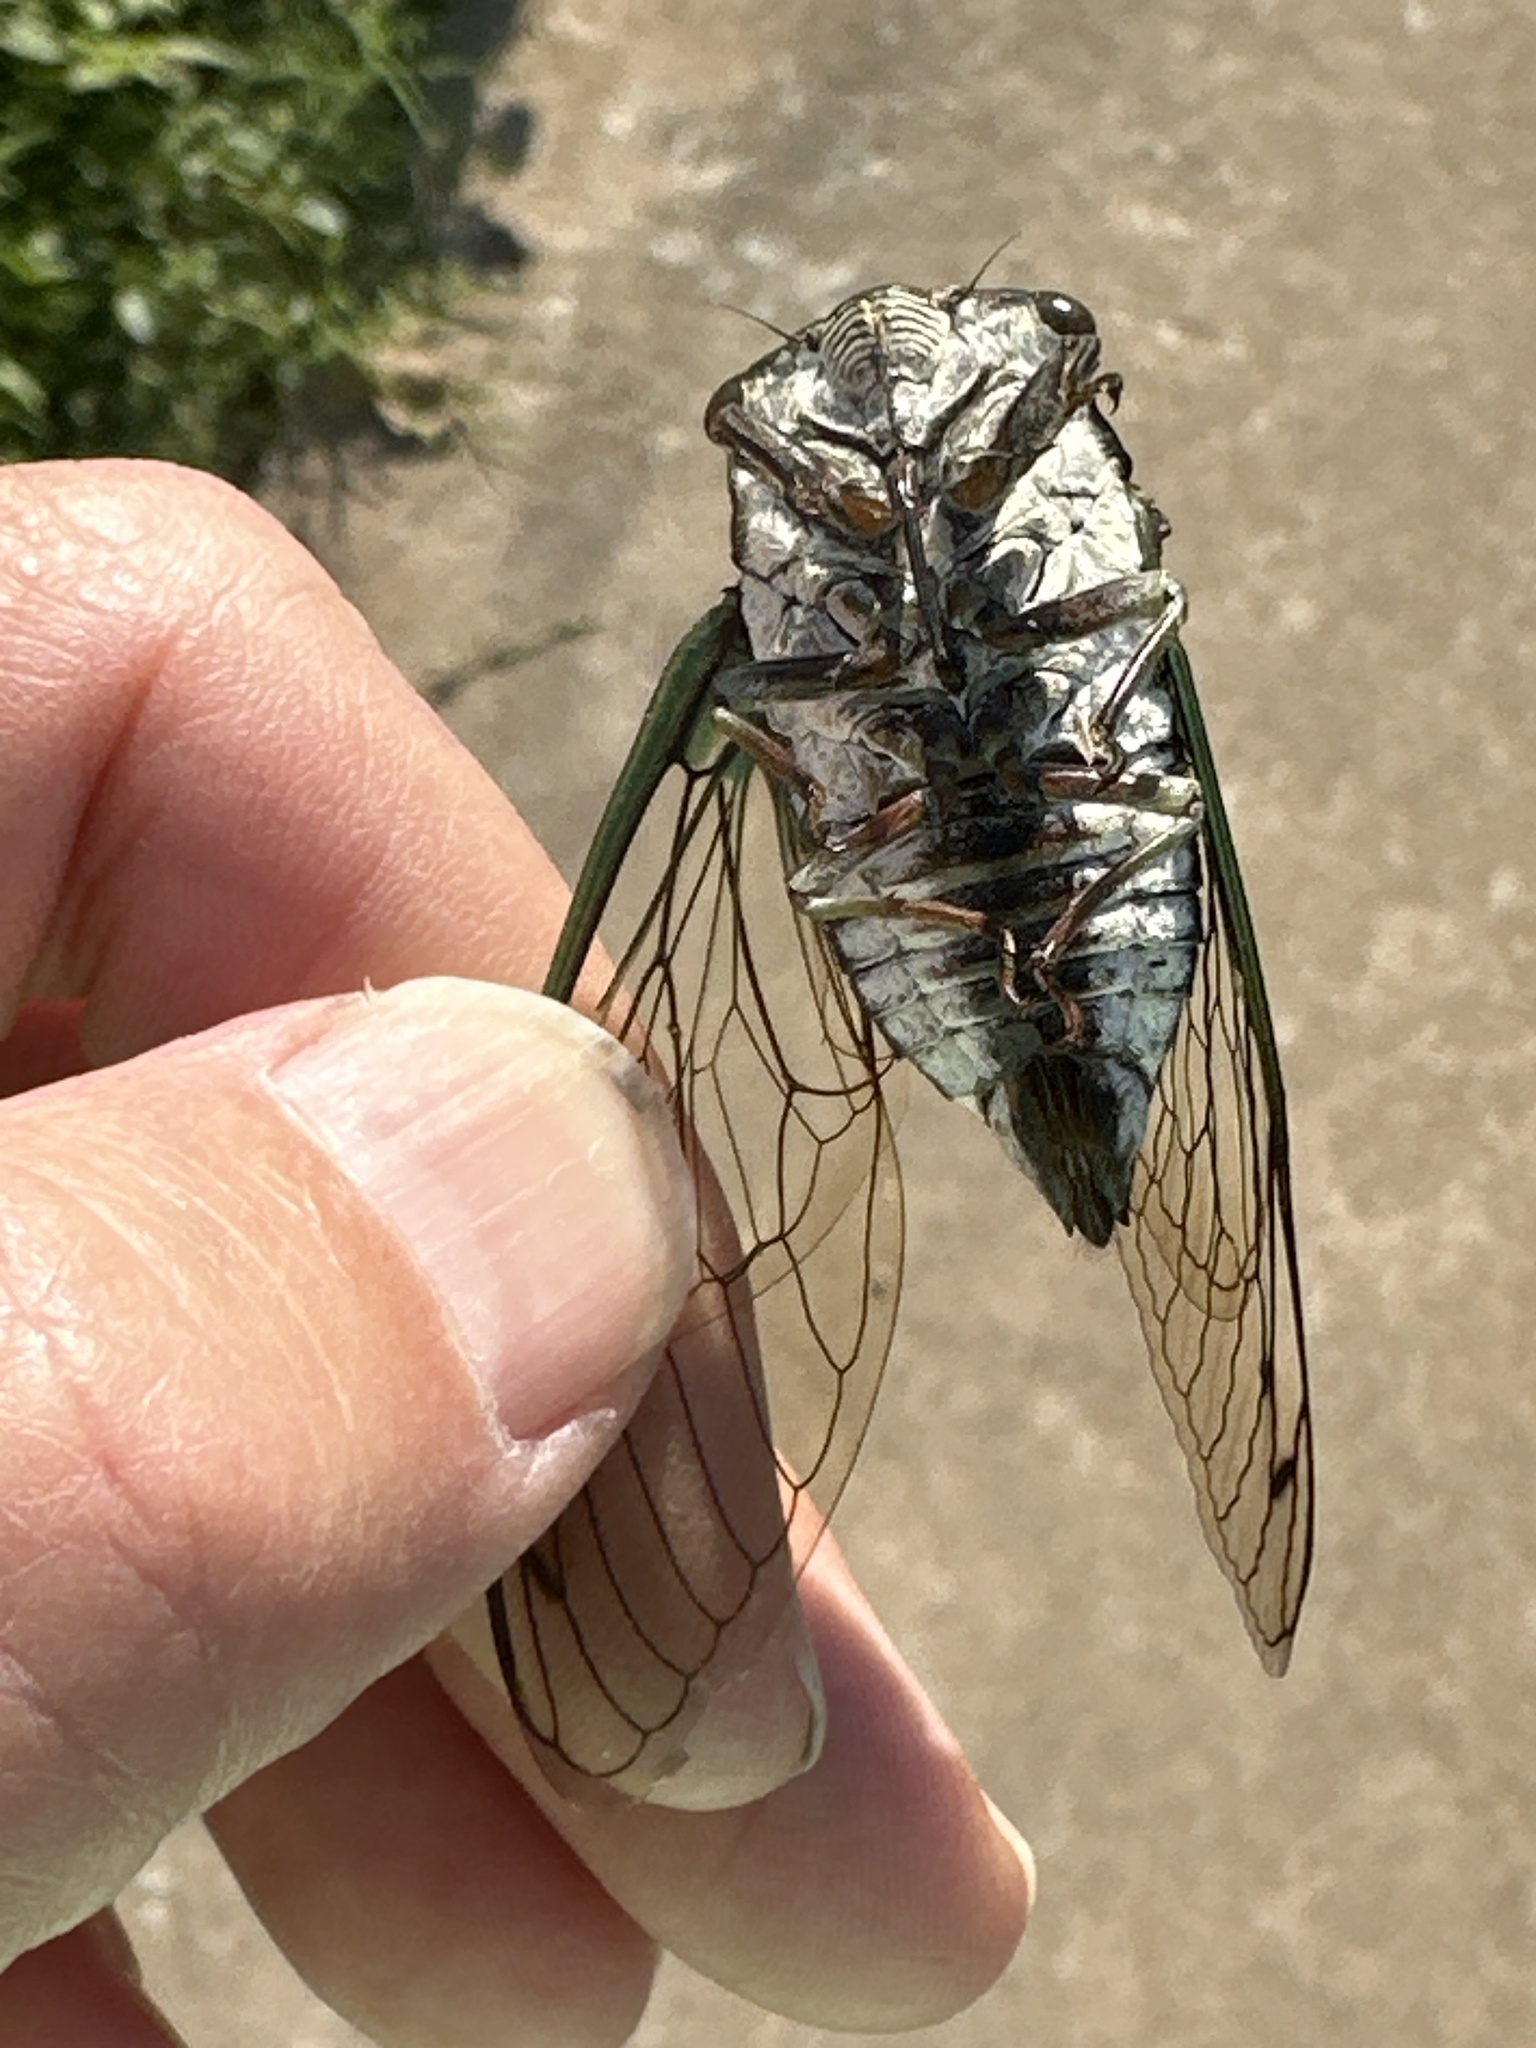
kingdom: Animalia
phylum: Arthropoda
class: Insecta
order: Hemiptera
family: Cicadidae
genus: Neotibicen
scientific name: Neotibicen lyricen
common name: Lyric cicada
